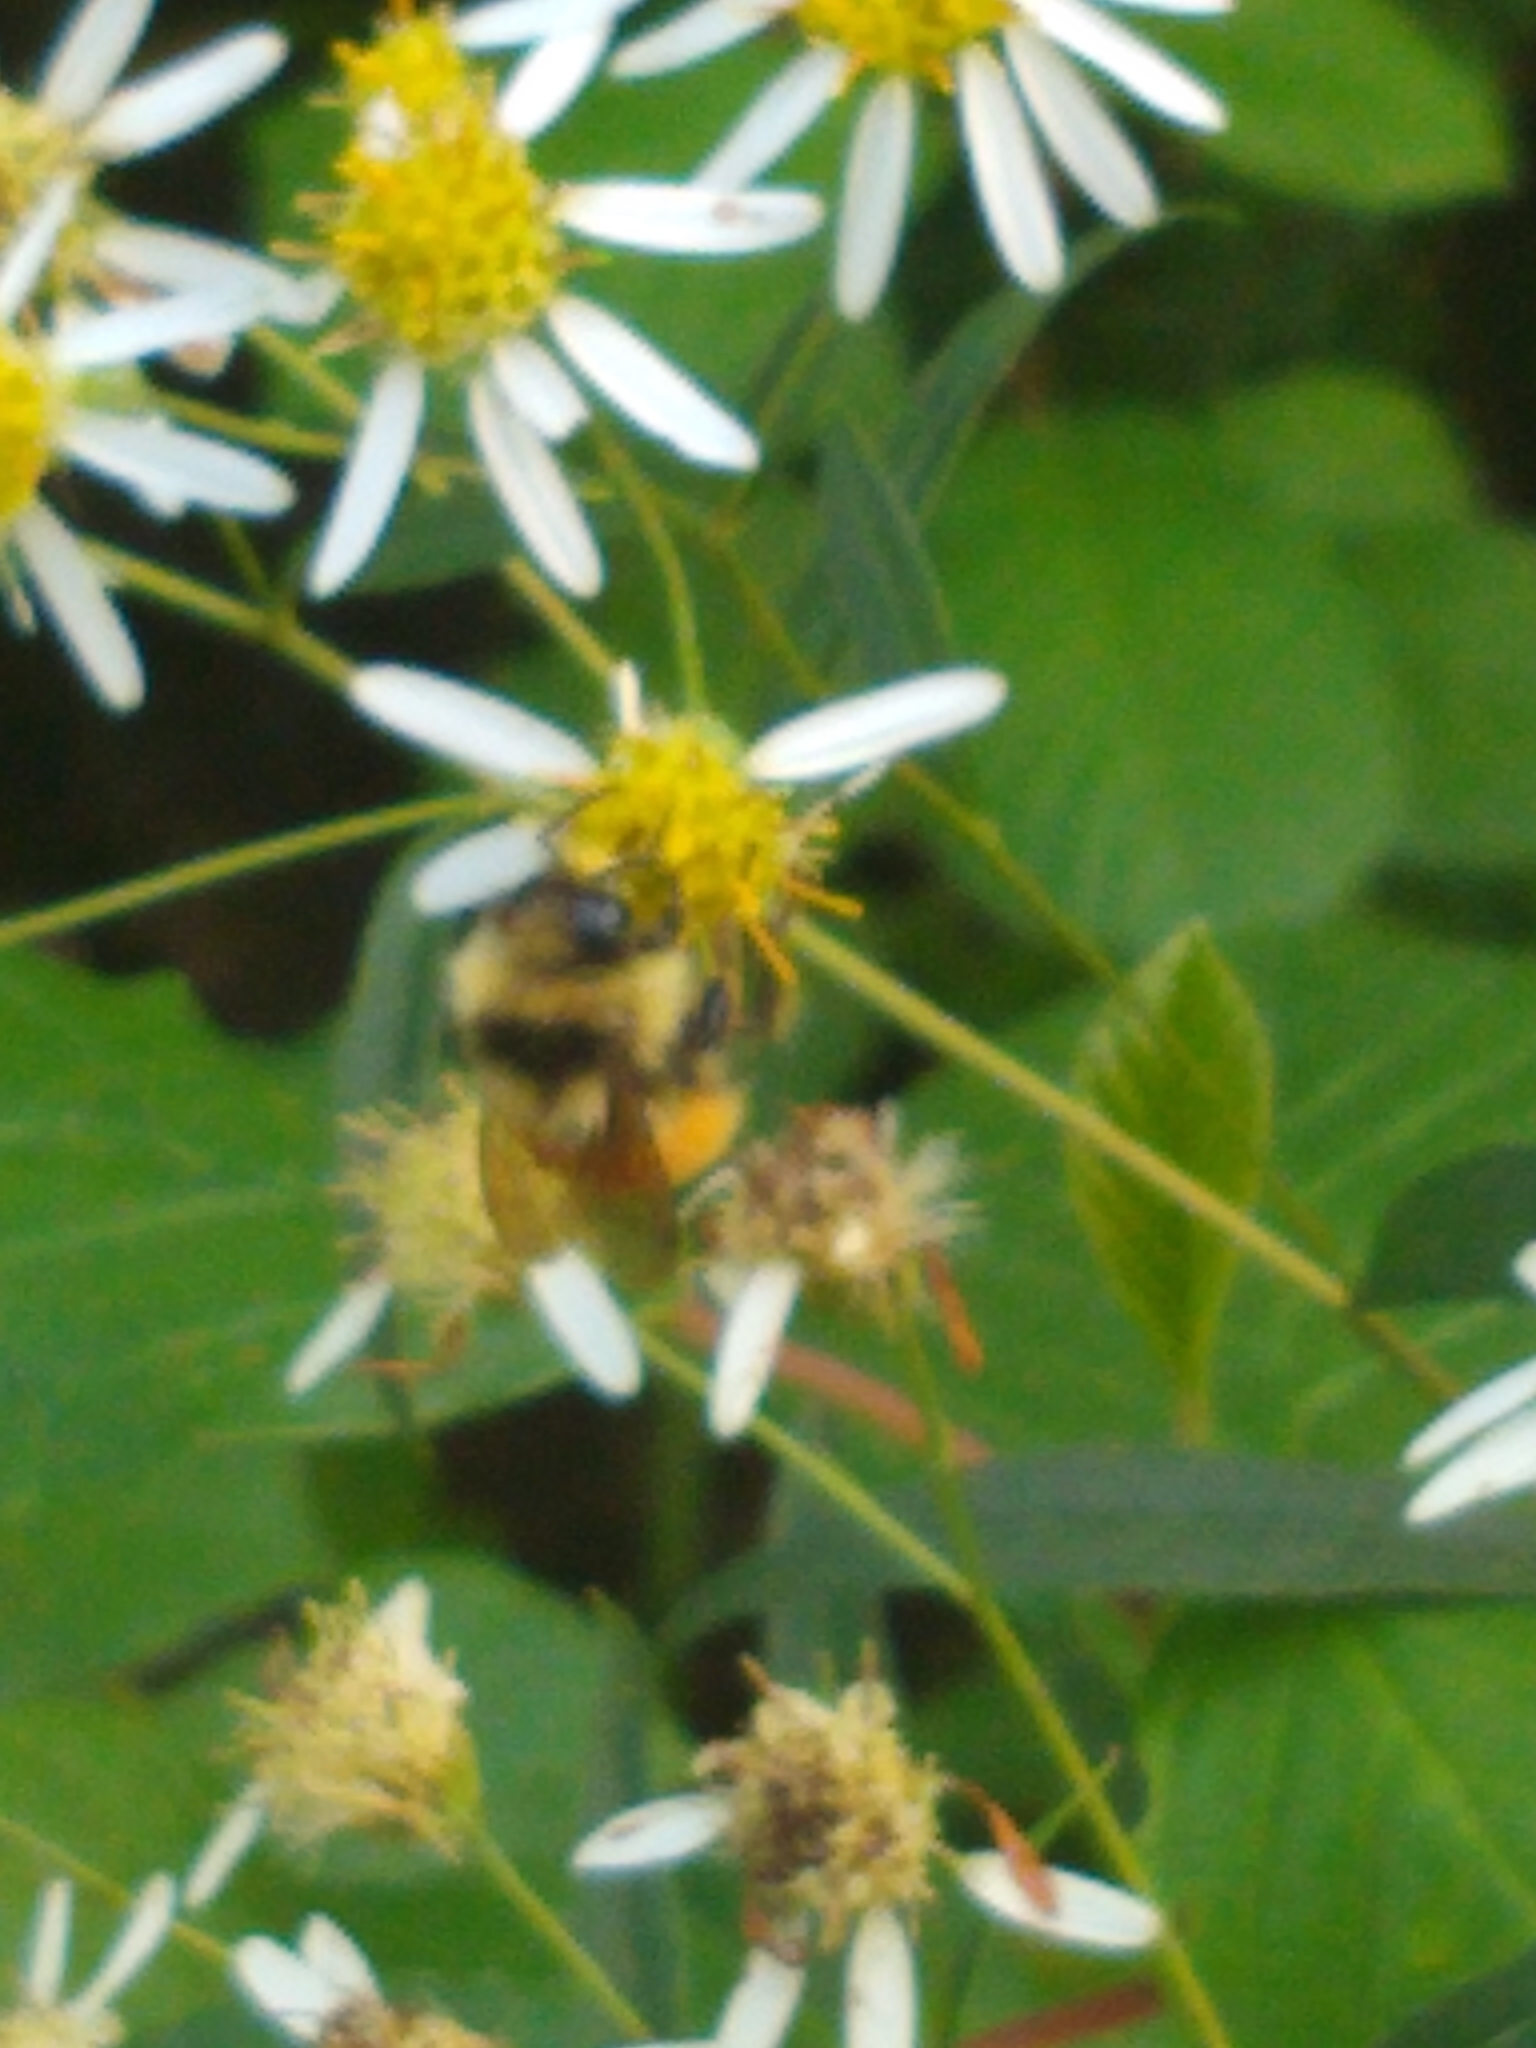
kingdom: Animalia
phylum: Arthropoda
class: Insecta
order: Hymenoptera
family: Apidae
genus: Bombus
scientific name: Bombus ternarius
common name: Tri-colored bumble bee
